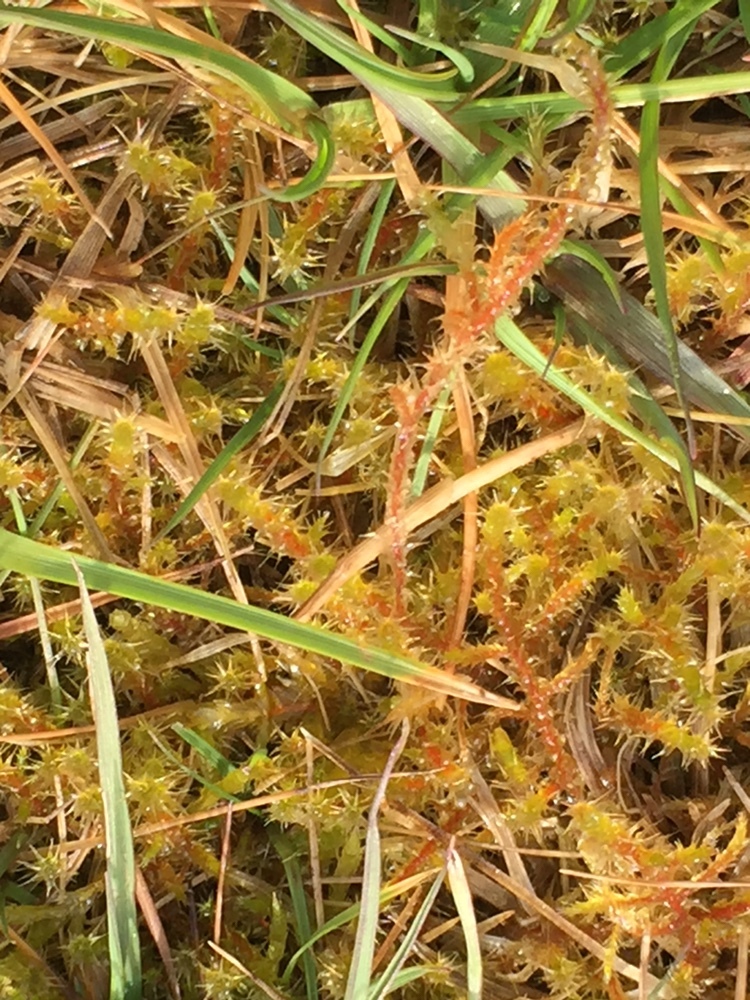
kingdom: Plantae
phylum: Bryophyta
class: Bryopsida
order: Hypnales
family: Hylocomiaceae
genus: Rhytidiadelphus
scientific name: Rhytidiadelphus squarrosus
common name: Springy turf-moss
